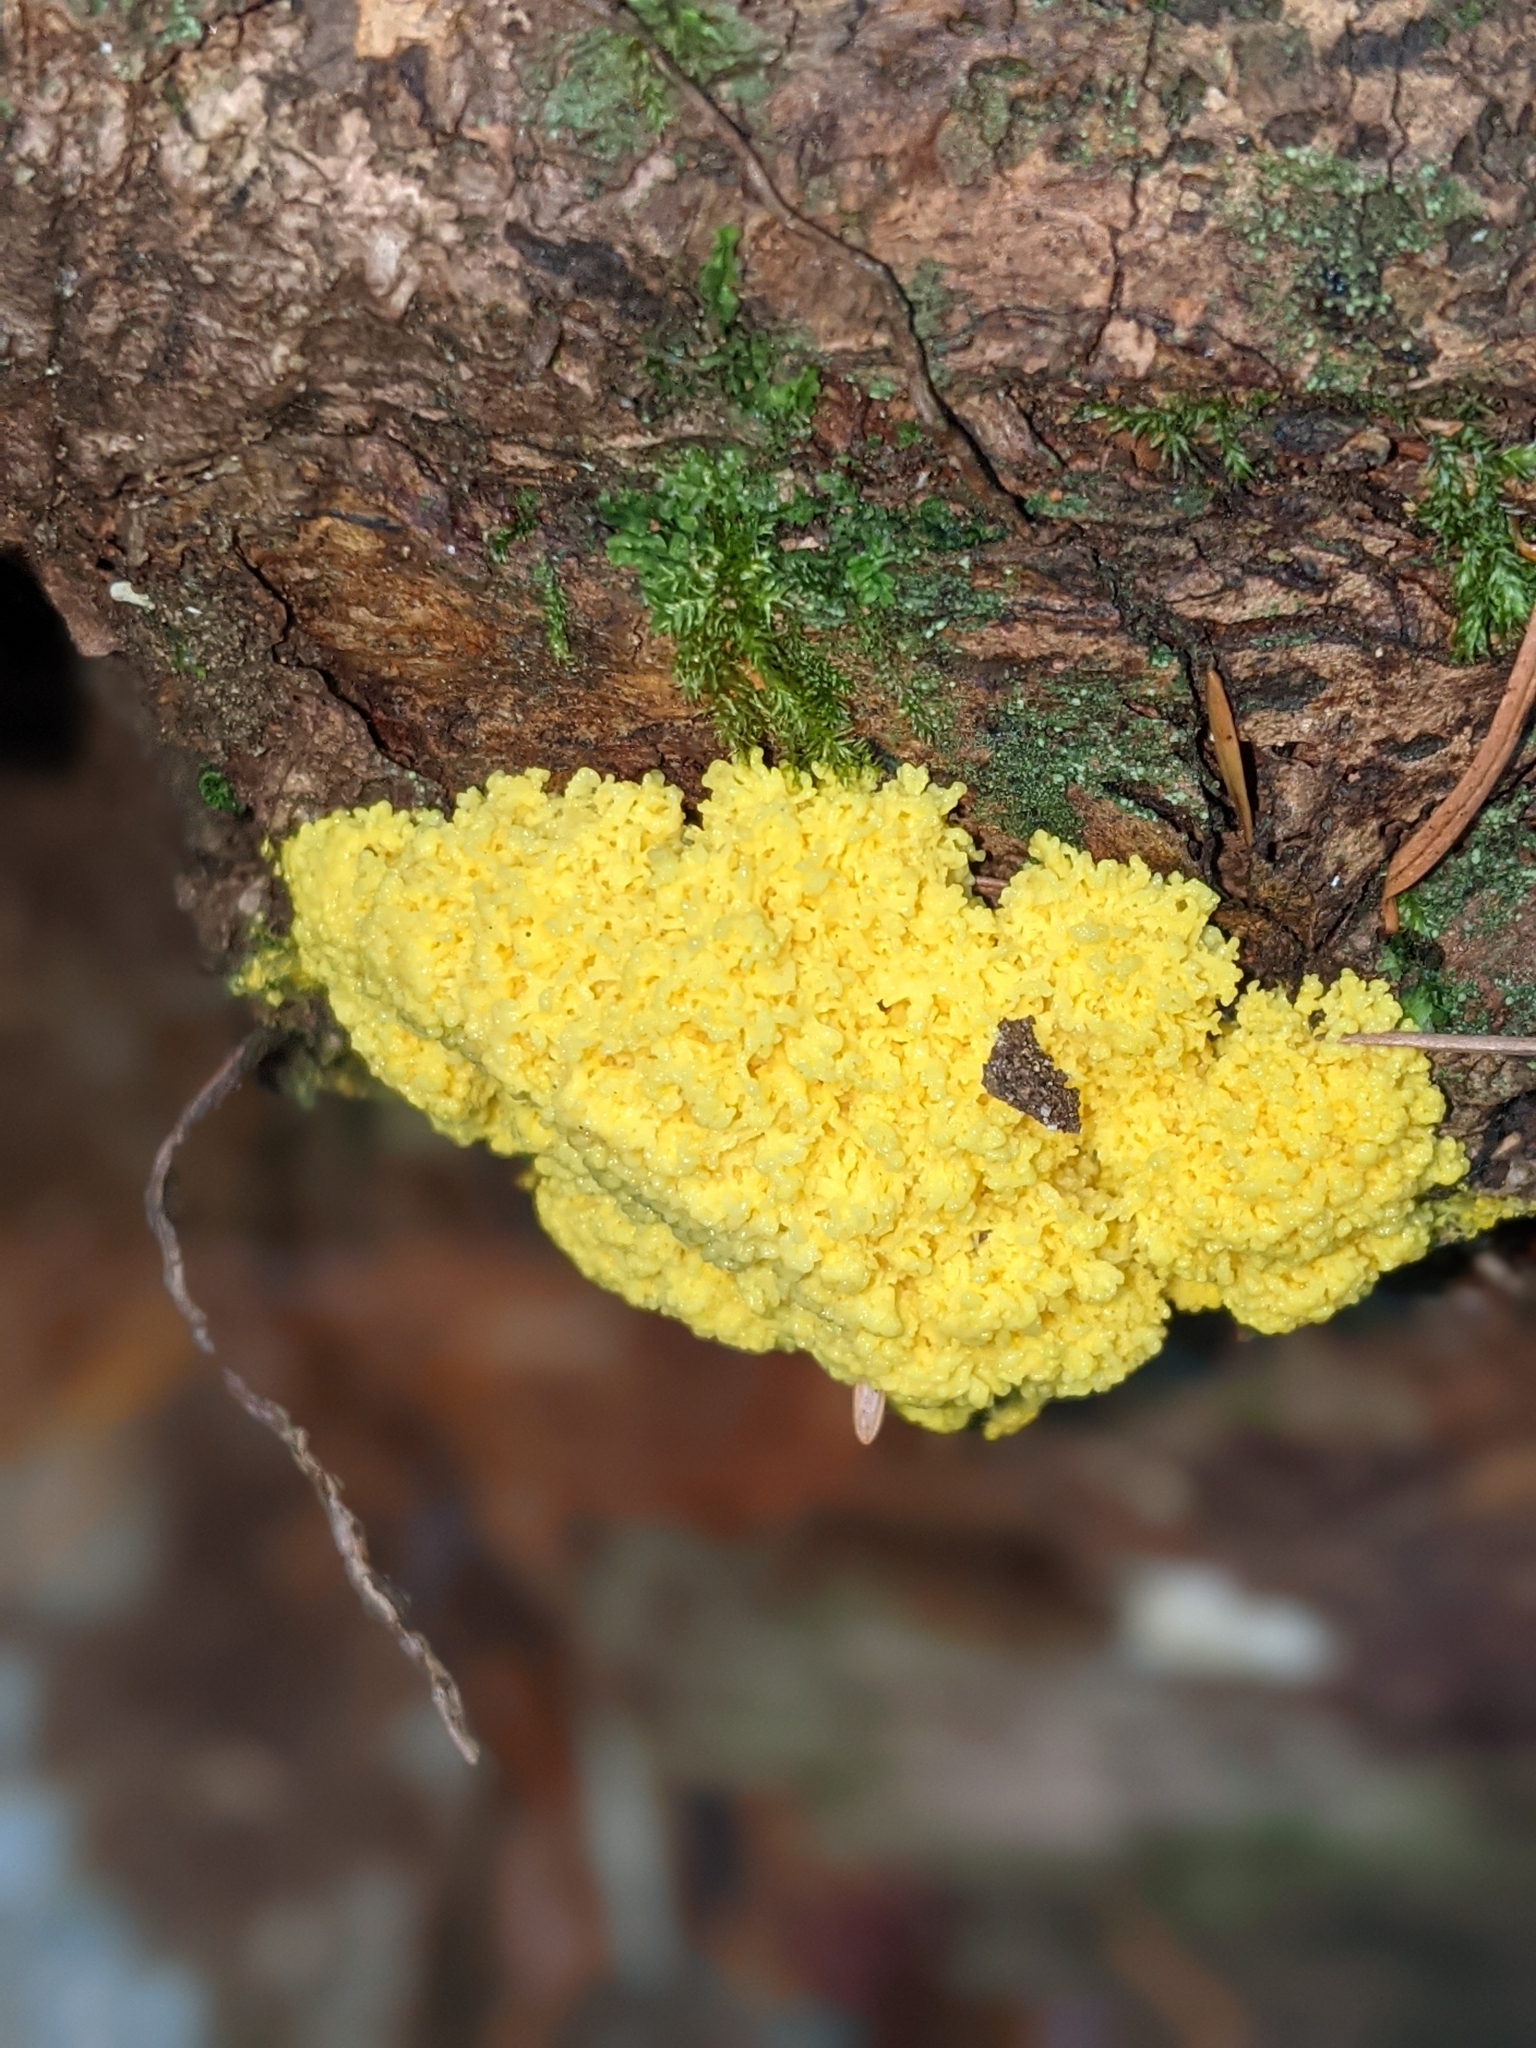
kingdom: Protozoa
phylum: Mycetozoa
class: Myxomycetes
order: Physarales
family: Physaraceae
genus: Fuligo
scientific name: Fuligo septica
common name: Dog vomit slime mold
